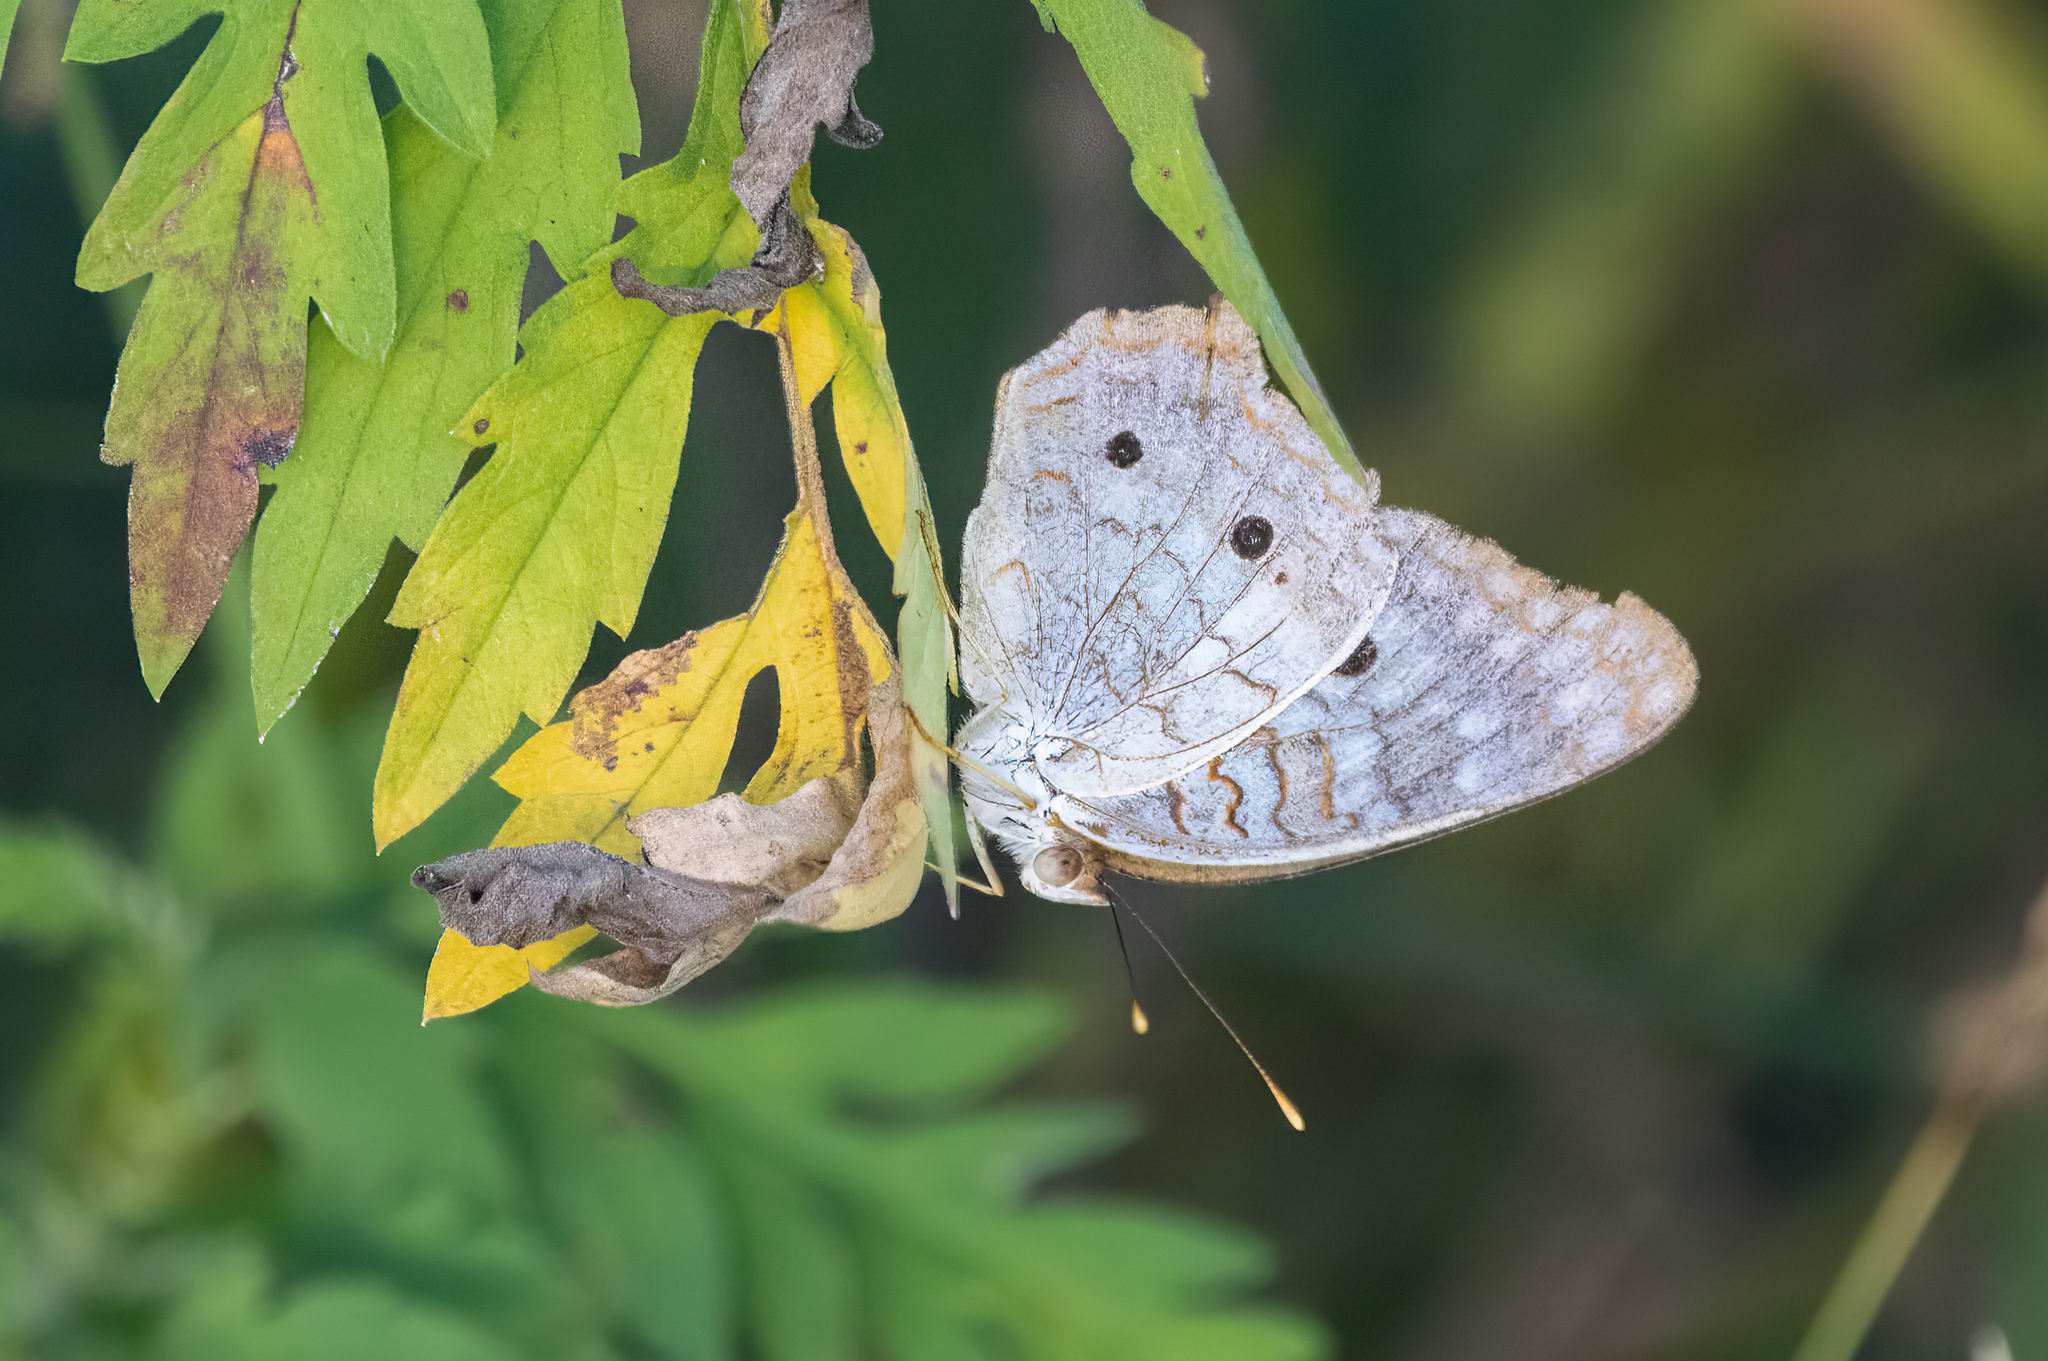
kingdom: Animalia
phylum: Arthropoda
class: Insecta
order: Lepidoptera
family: Nymphalidae
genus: Anartia
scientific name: Anartia jatrophae
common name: White peacock
